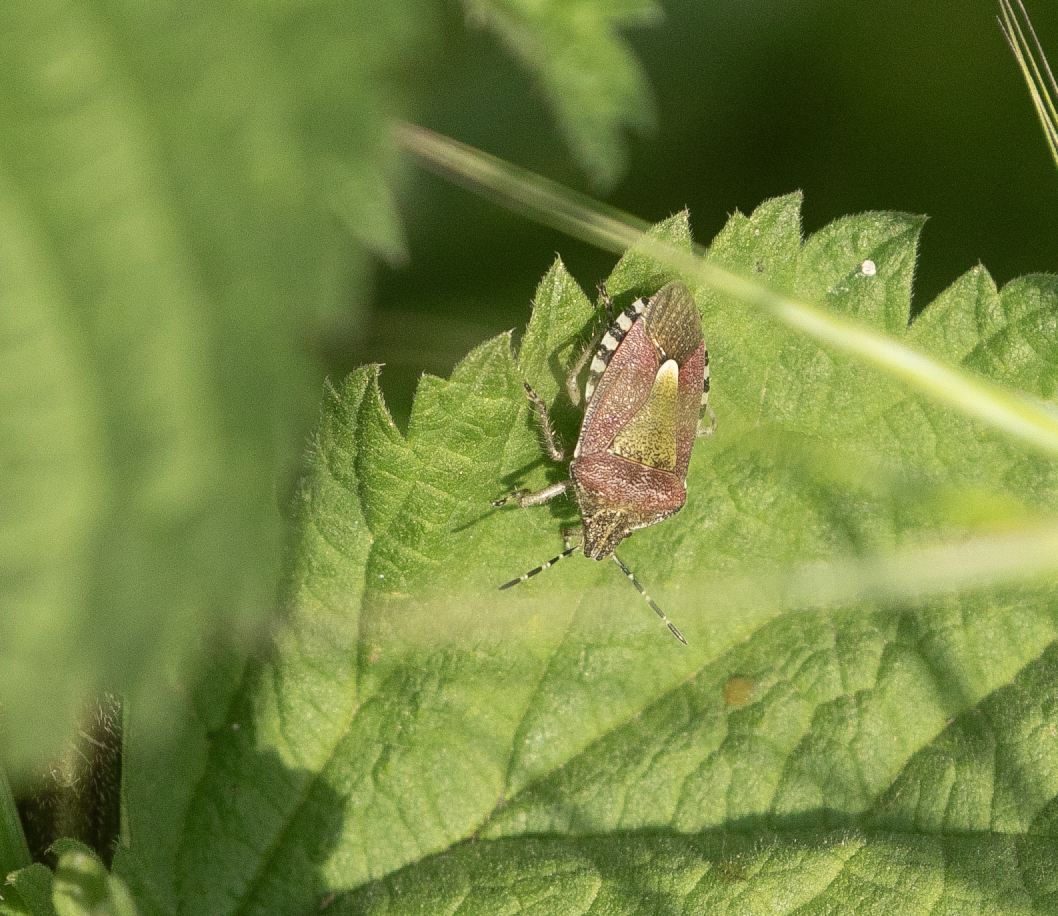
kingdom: Animalia
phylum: Arthropoda
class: Insecta
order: Hemiptera
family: Pentatomidae
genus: Dolycoris
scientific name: Dolycoris baccarum
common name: Sloe bug
